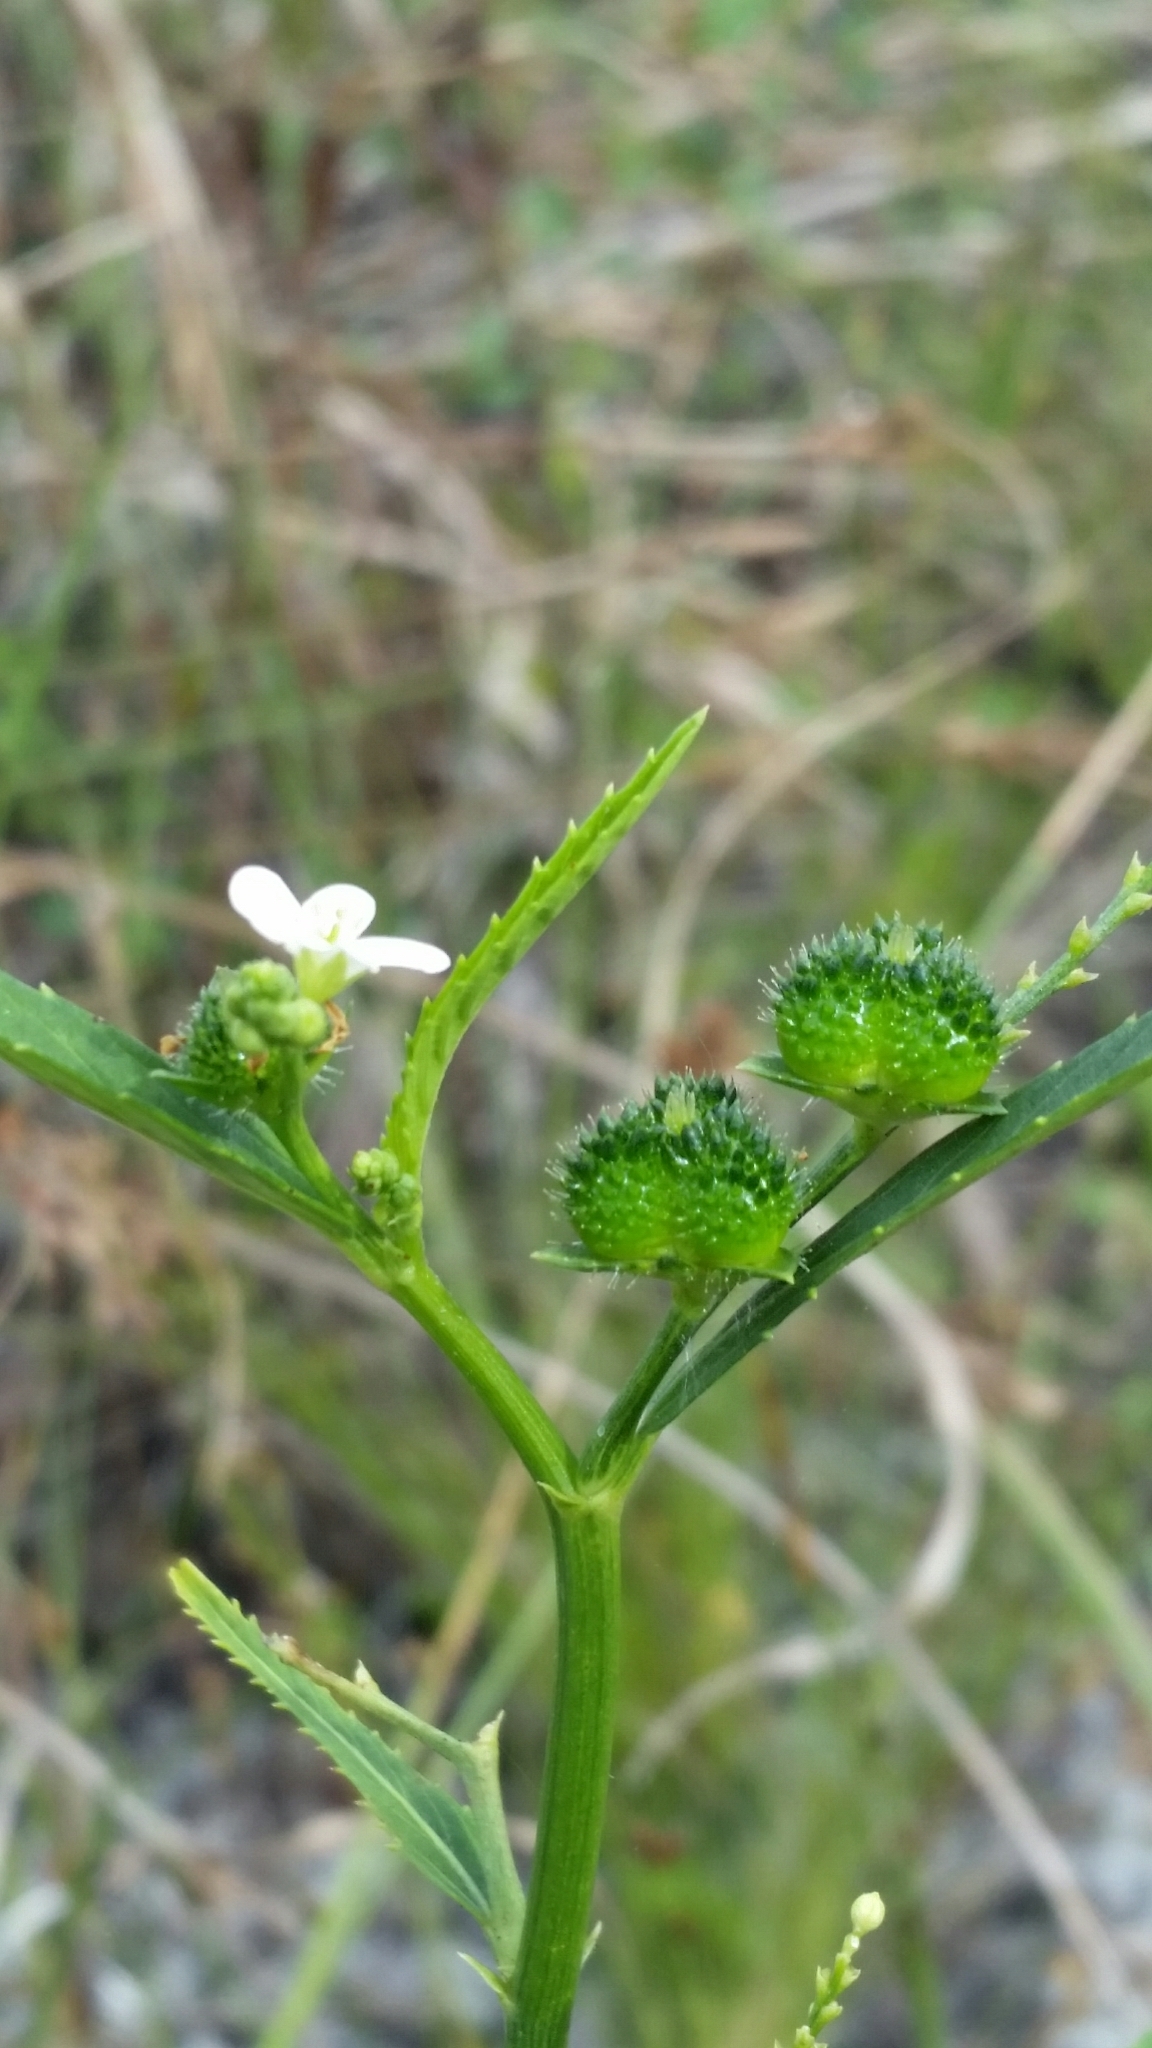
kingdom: Plantae
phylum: Tracheophyta
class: Magnoliopsida
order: Malpighiales
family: Euphorbiaceae
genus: Caperonia
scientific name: Caperonia castaneifolia
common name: Chestnutleaf false croton
